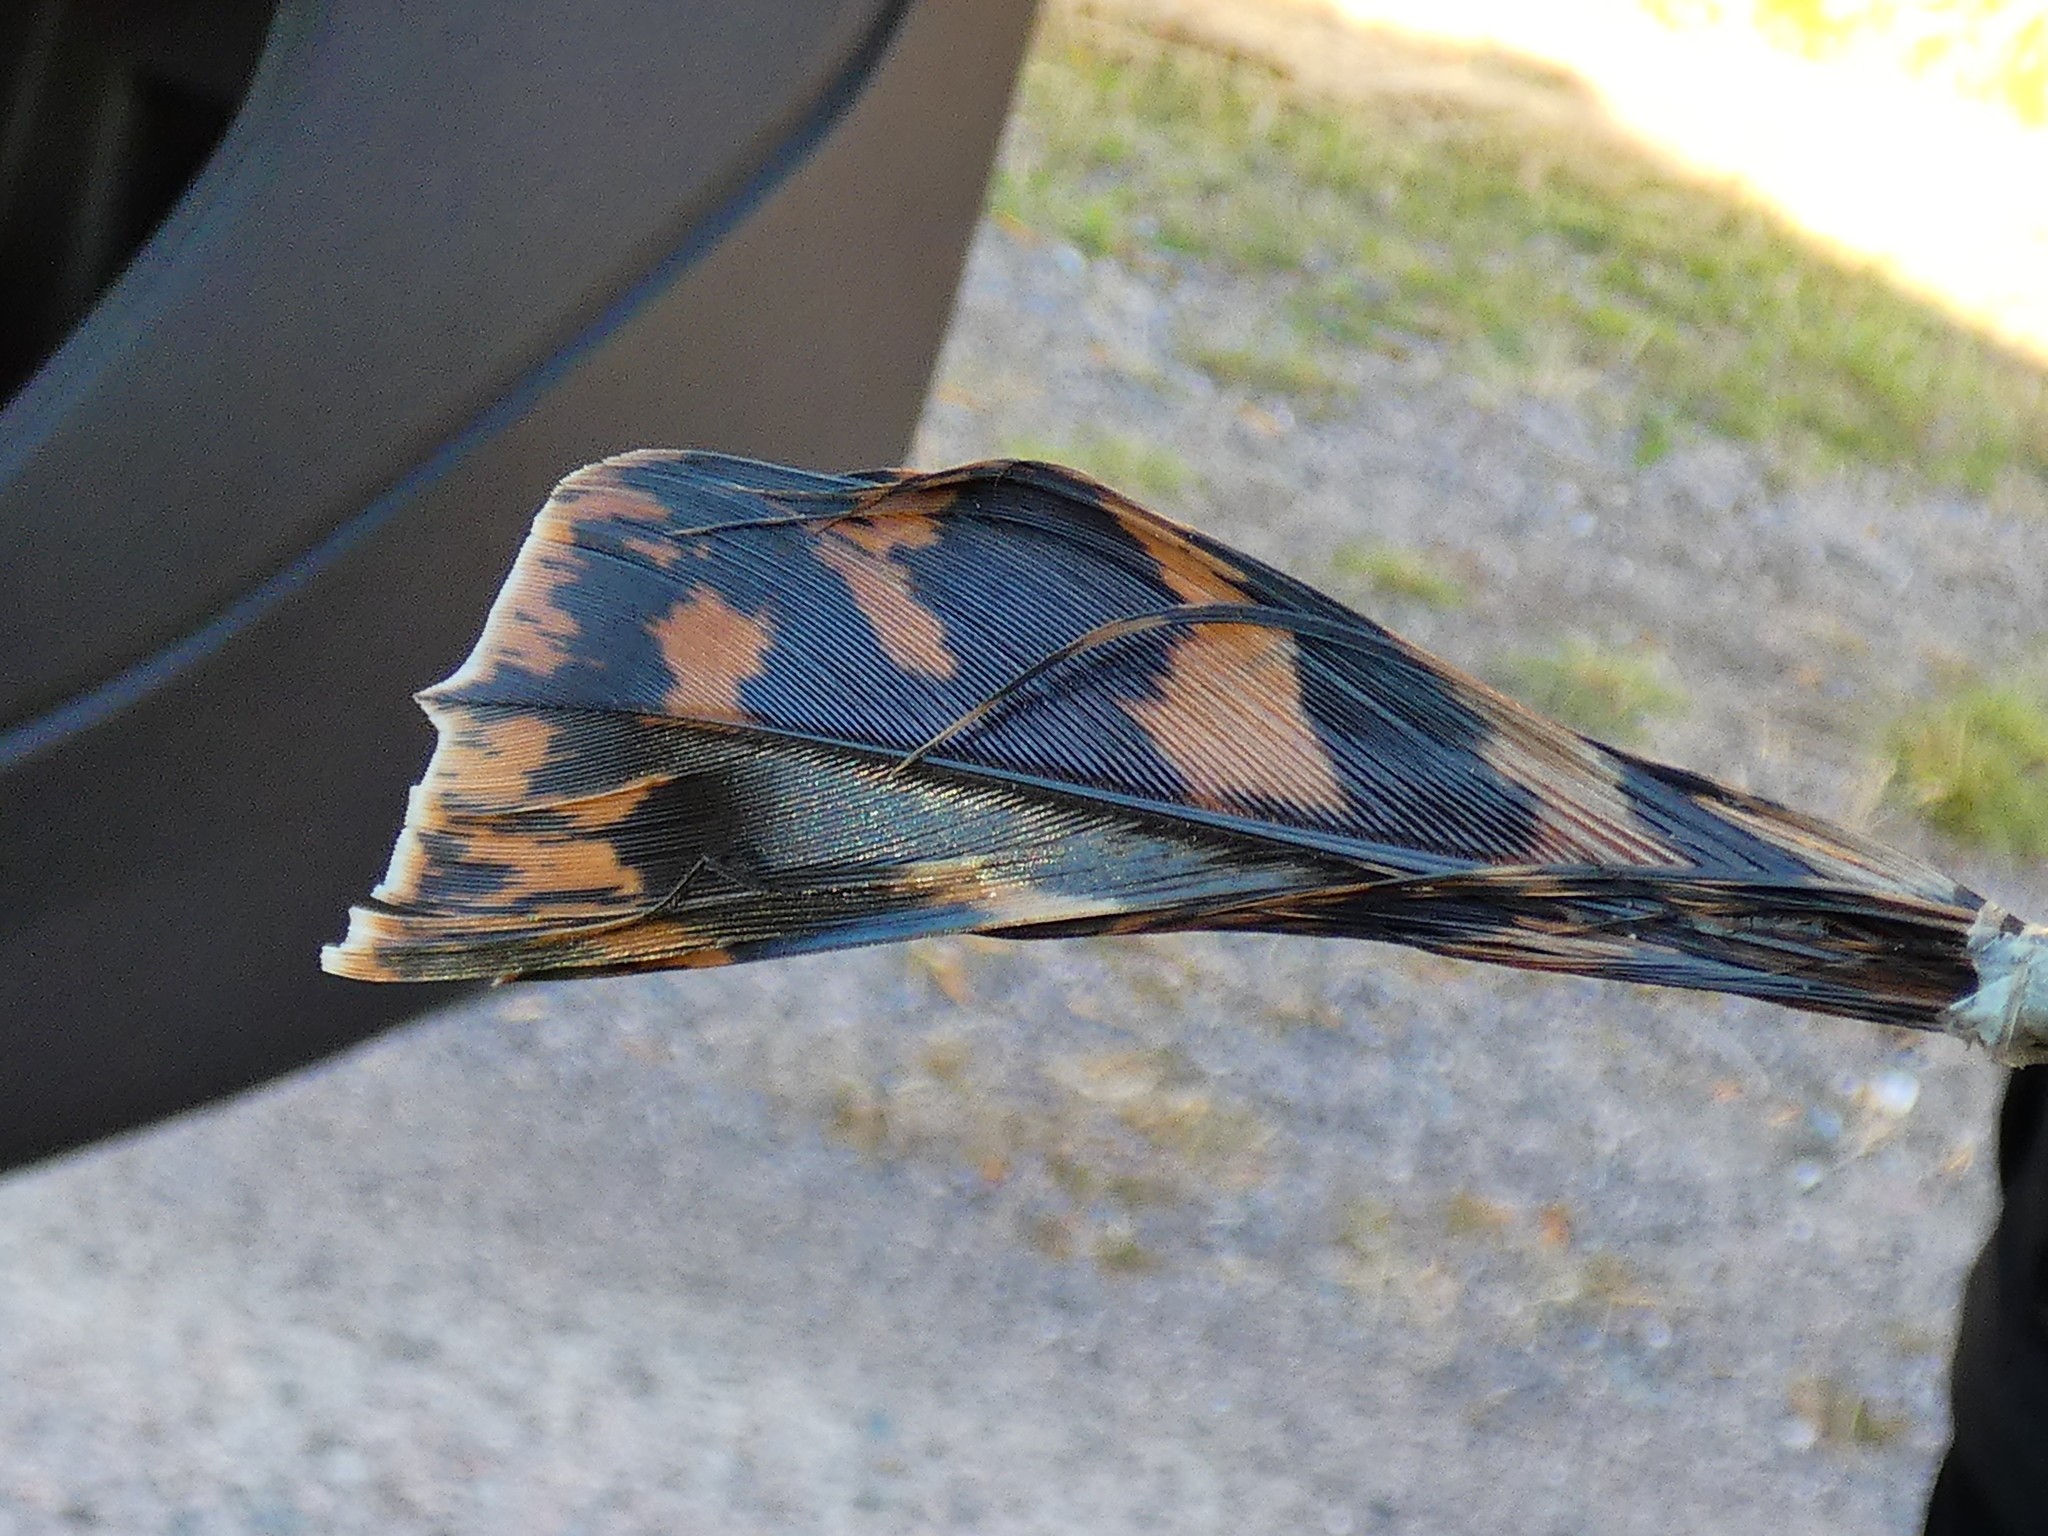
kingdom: Animalia
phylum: Chordata
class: Aves
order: Galliformes
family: Phasianidae
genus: Tetrao
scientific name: Tetrao urogallus
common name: Western capercaillie
